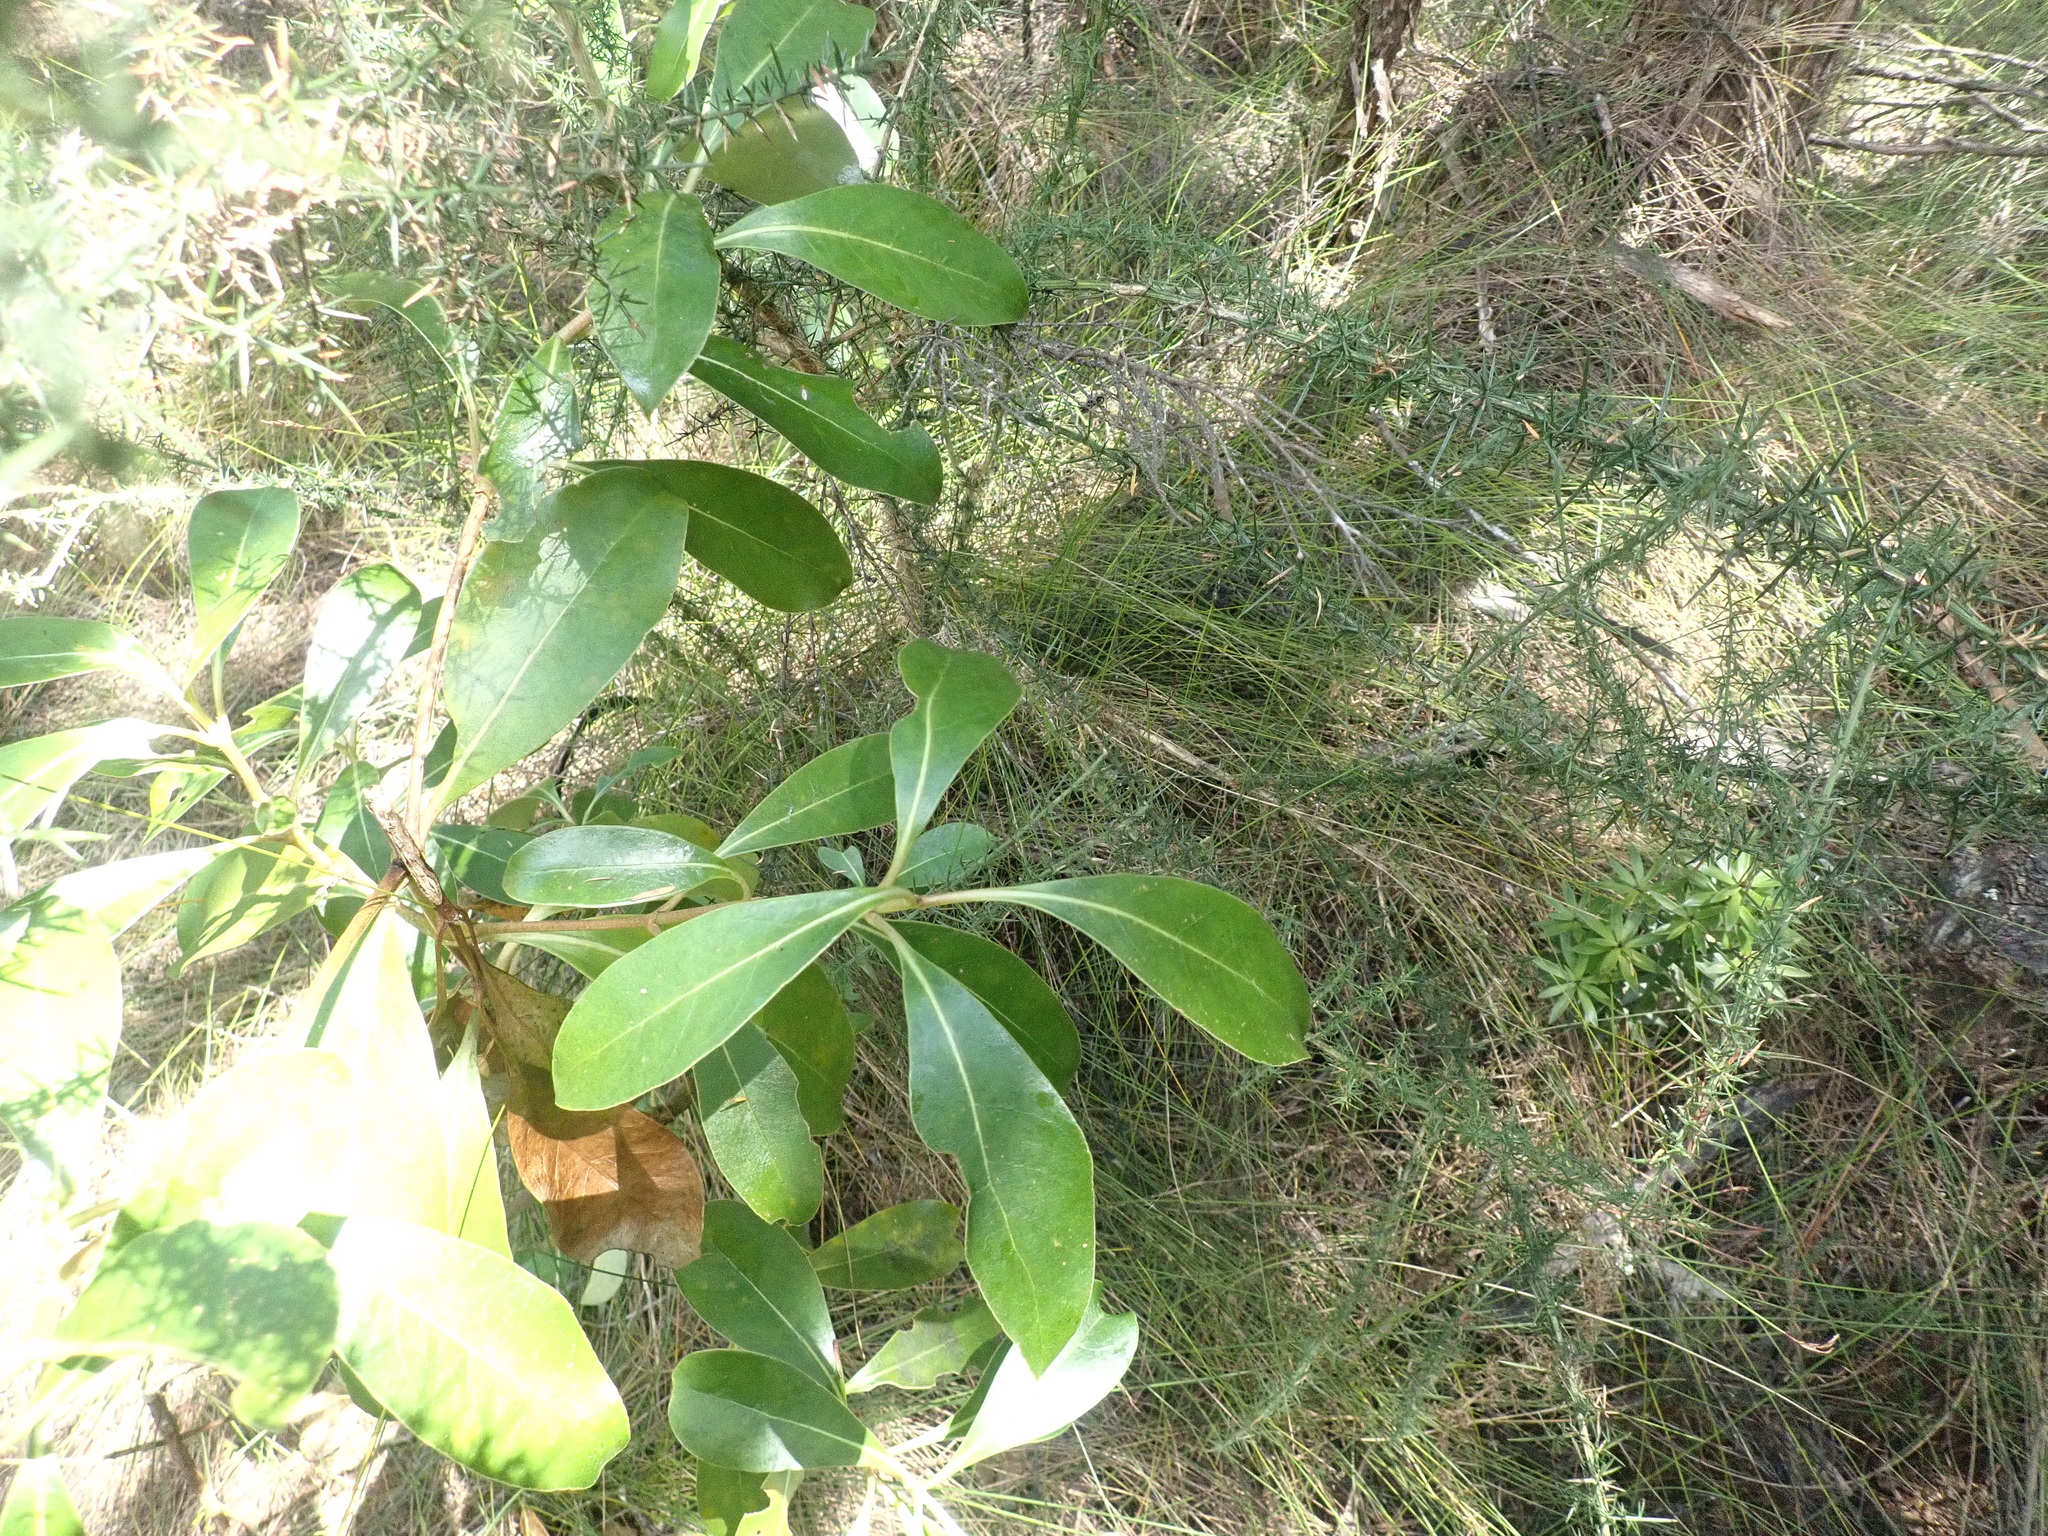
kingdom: Plantae
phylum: Tracheophyta
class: Magnoliopsida
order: Gentianales
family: Rubiaceae
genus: Coprosma
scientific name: Coprosma lucida
